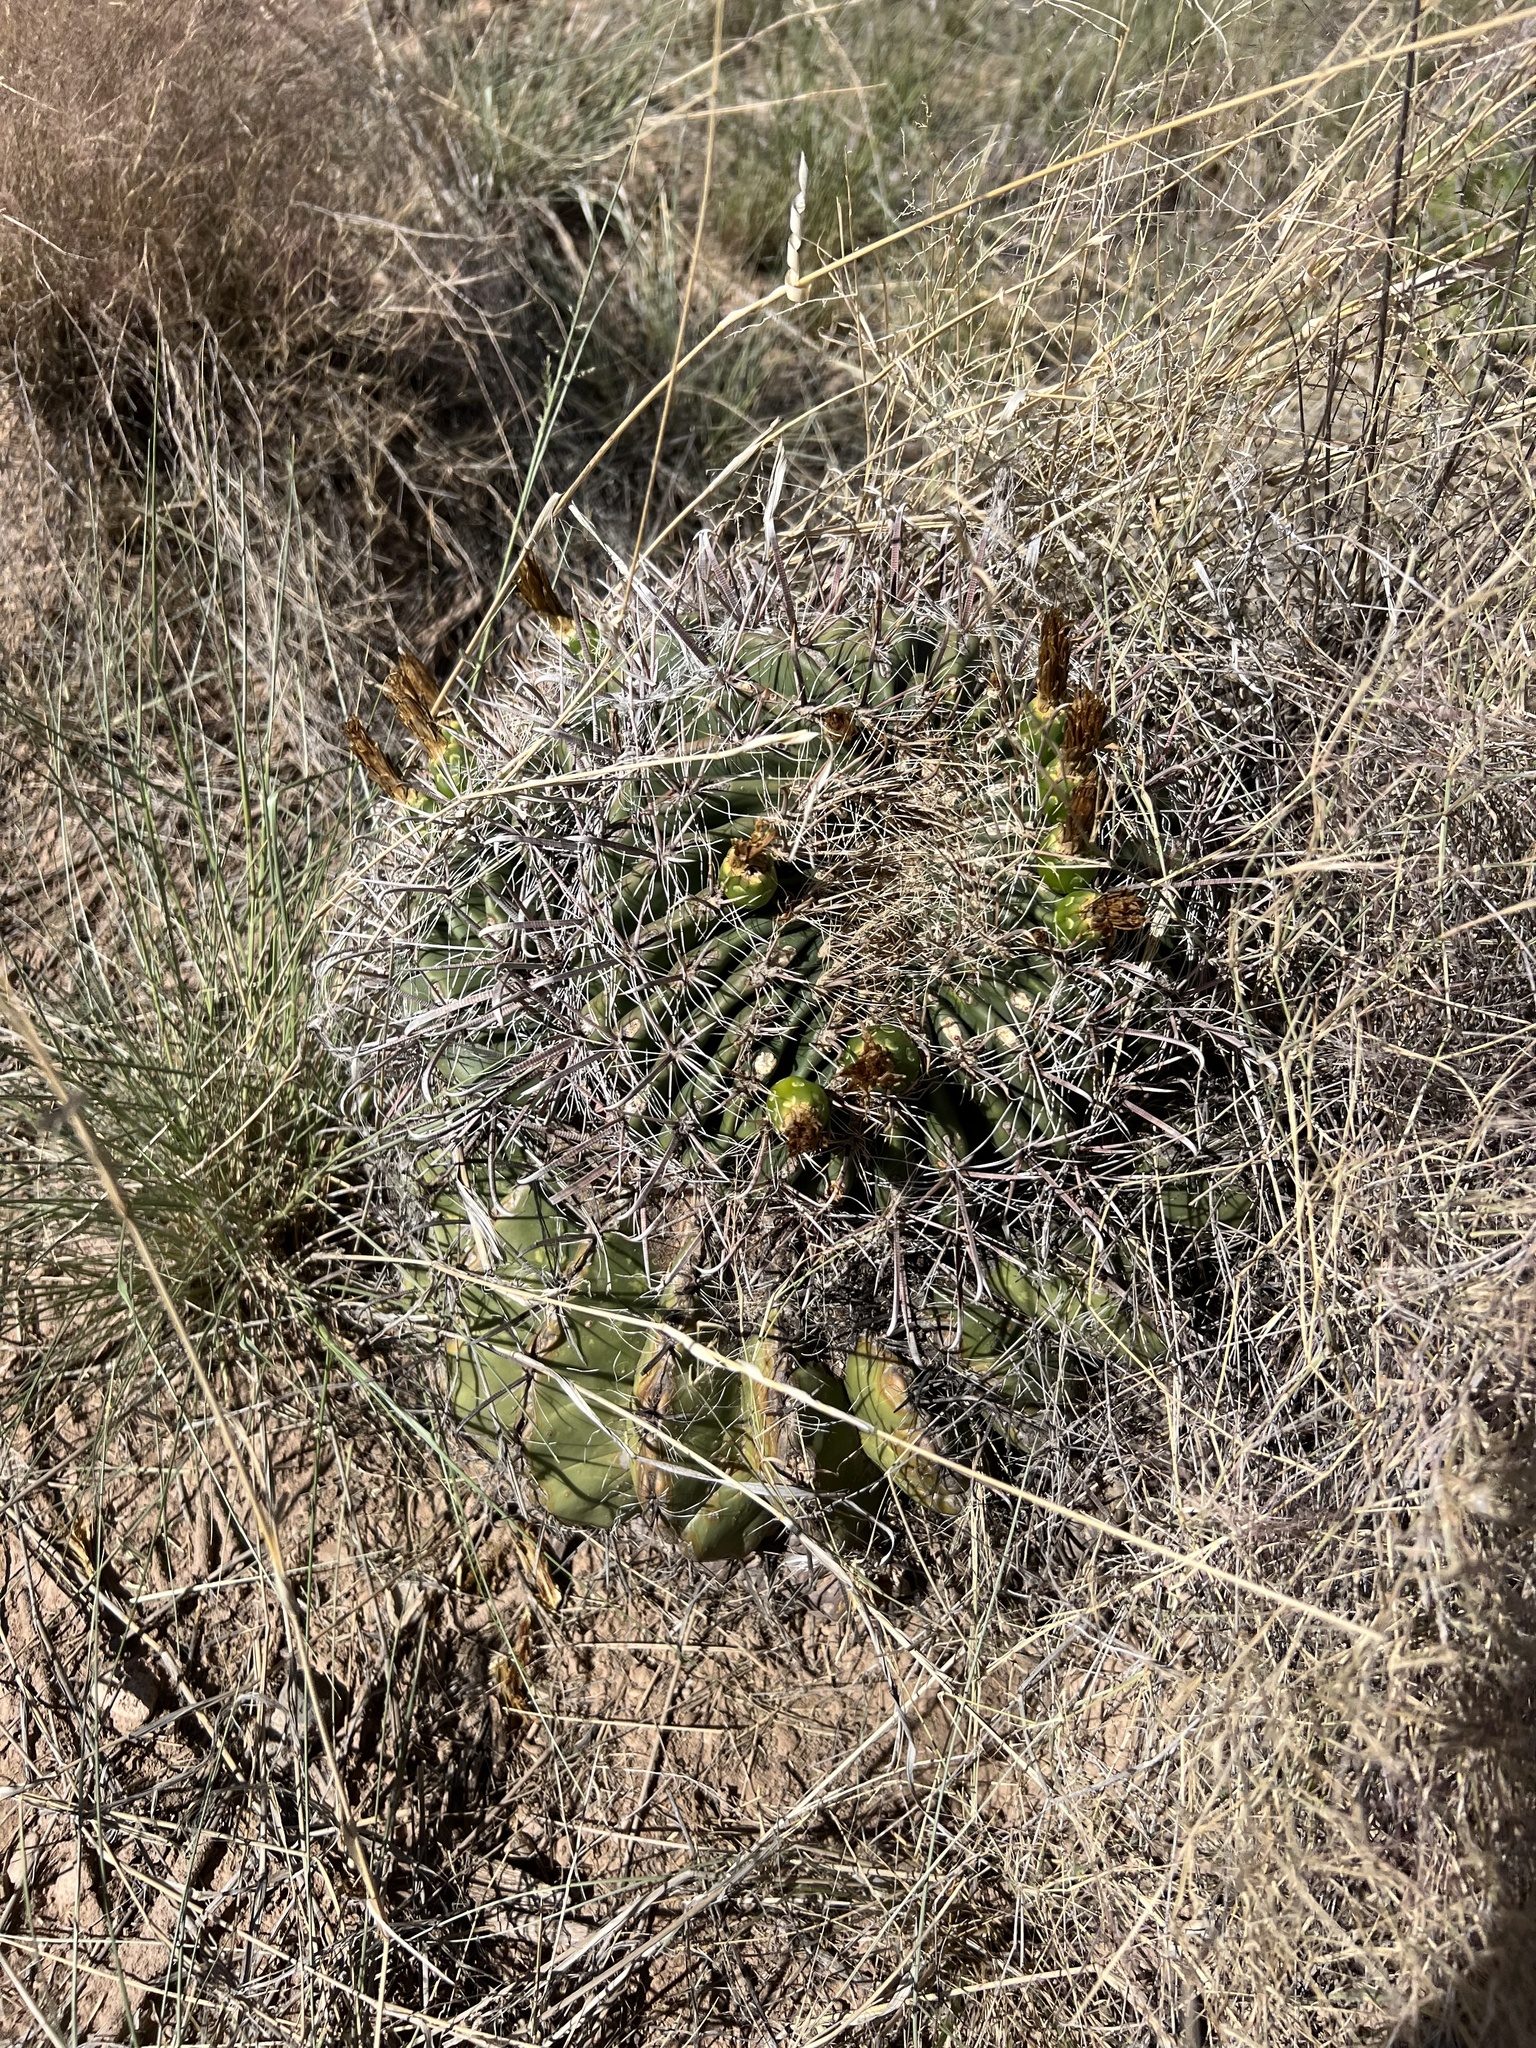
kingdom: Plantae
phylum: Tracheophyta
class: Magnoliopsida
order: Caryophyllales
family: Cactaceae
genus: Ferocactus
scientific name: Ferocactus wislizeni
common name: Candy barrel cactus
